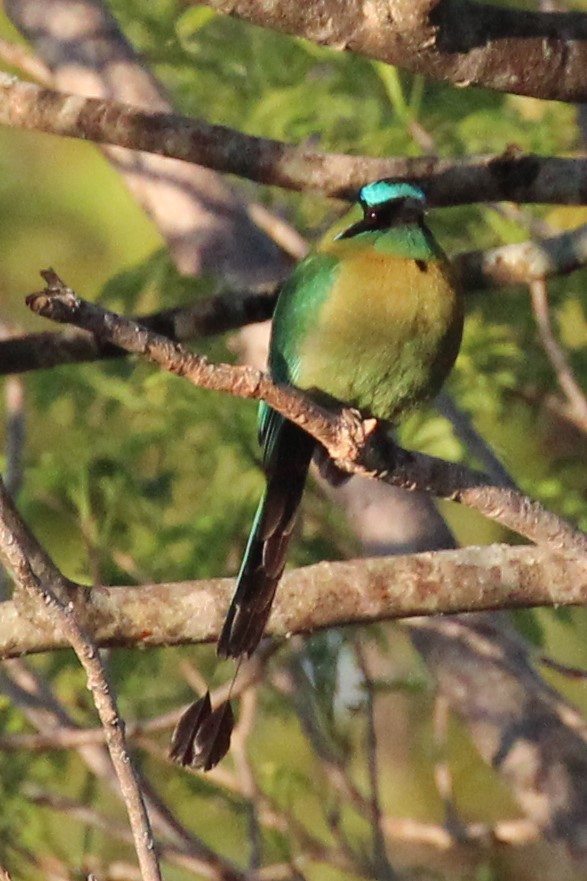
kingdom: Animalia
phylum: Chordata
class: Aves
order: Coraciiformes
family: Momotidae
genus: Momotus
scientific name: Momotus lessonii
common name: Lesson's motmot
